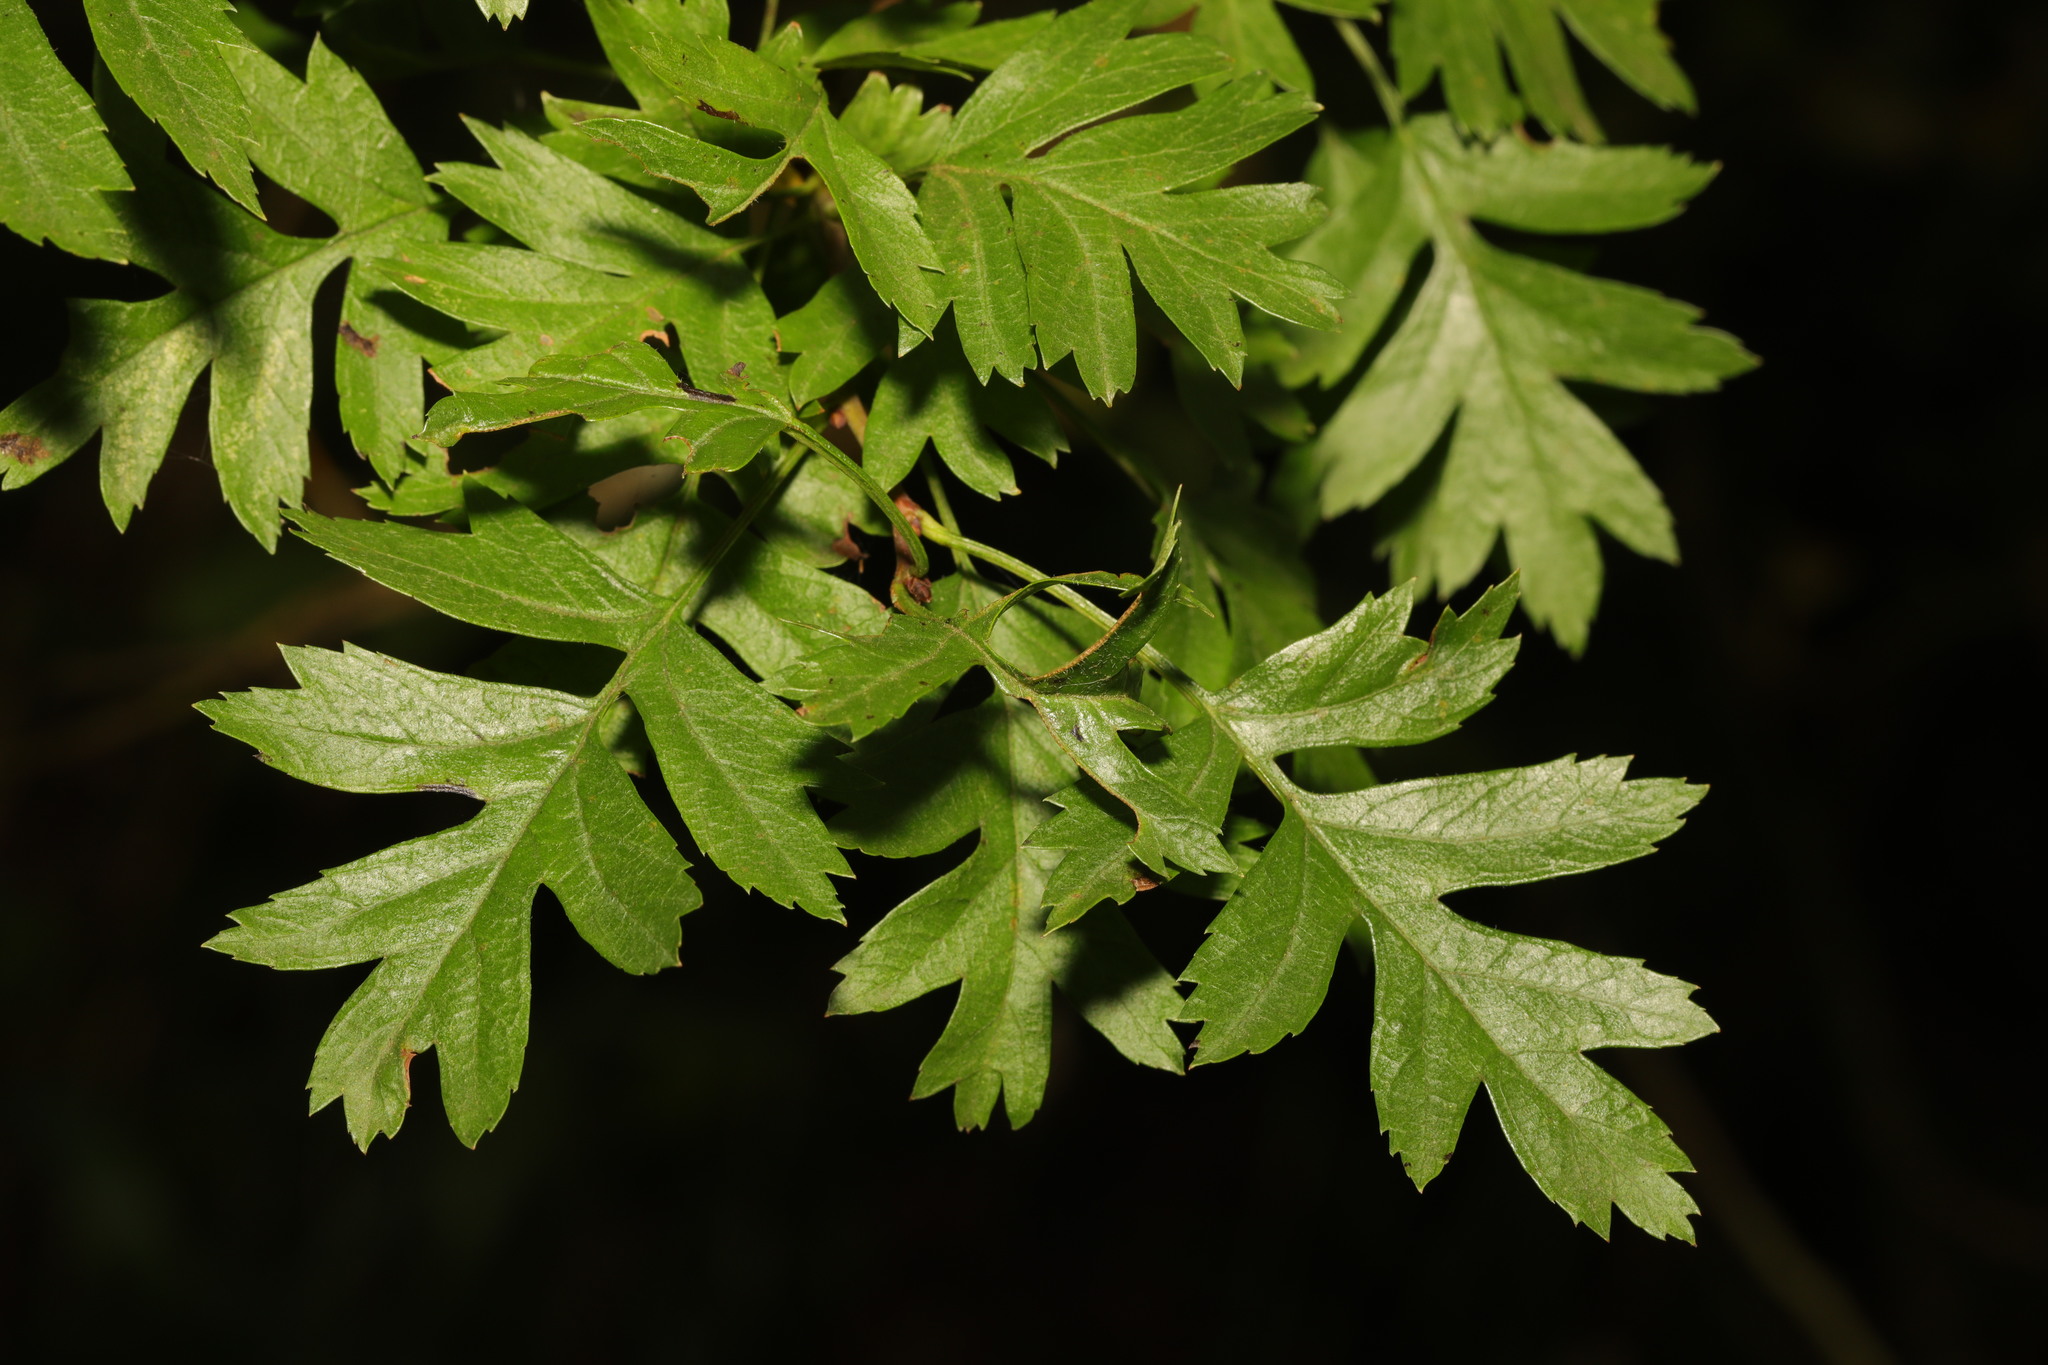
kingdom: Plantae
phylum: Tracheophyta
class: Magnoliopsida
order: Rosales
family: Rosaceae
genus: Crataegus
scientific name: Crataegus monogyna
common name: Hawthorn
